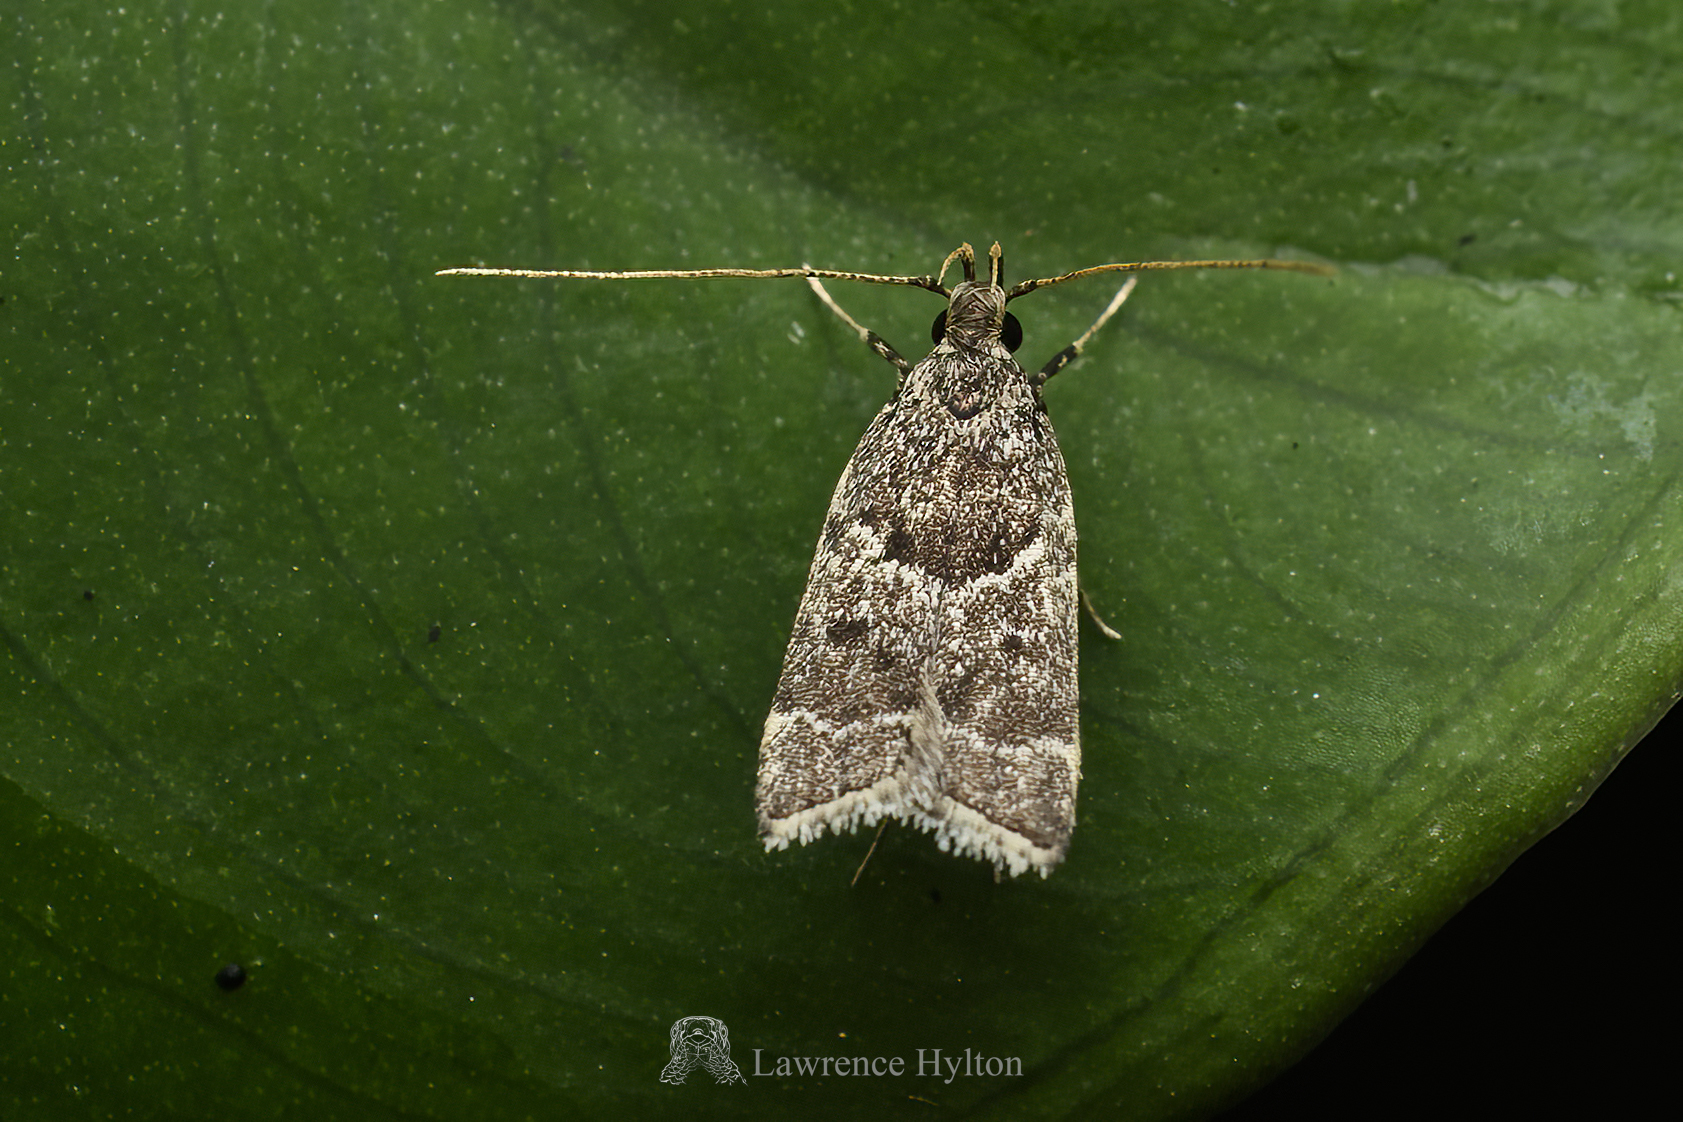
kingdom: Animalia
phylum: Arthropoda
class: Insecta
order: Lepidoptera
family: Lecithoceridae
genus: Athymoris
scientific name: Athymoris martialis
